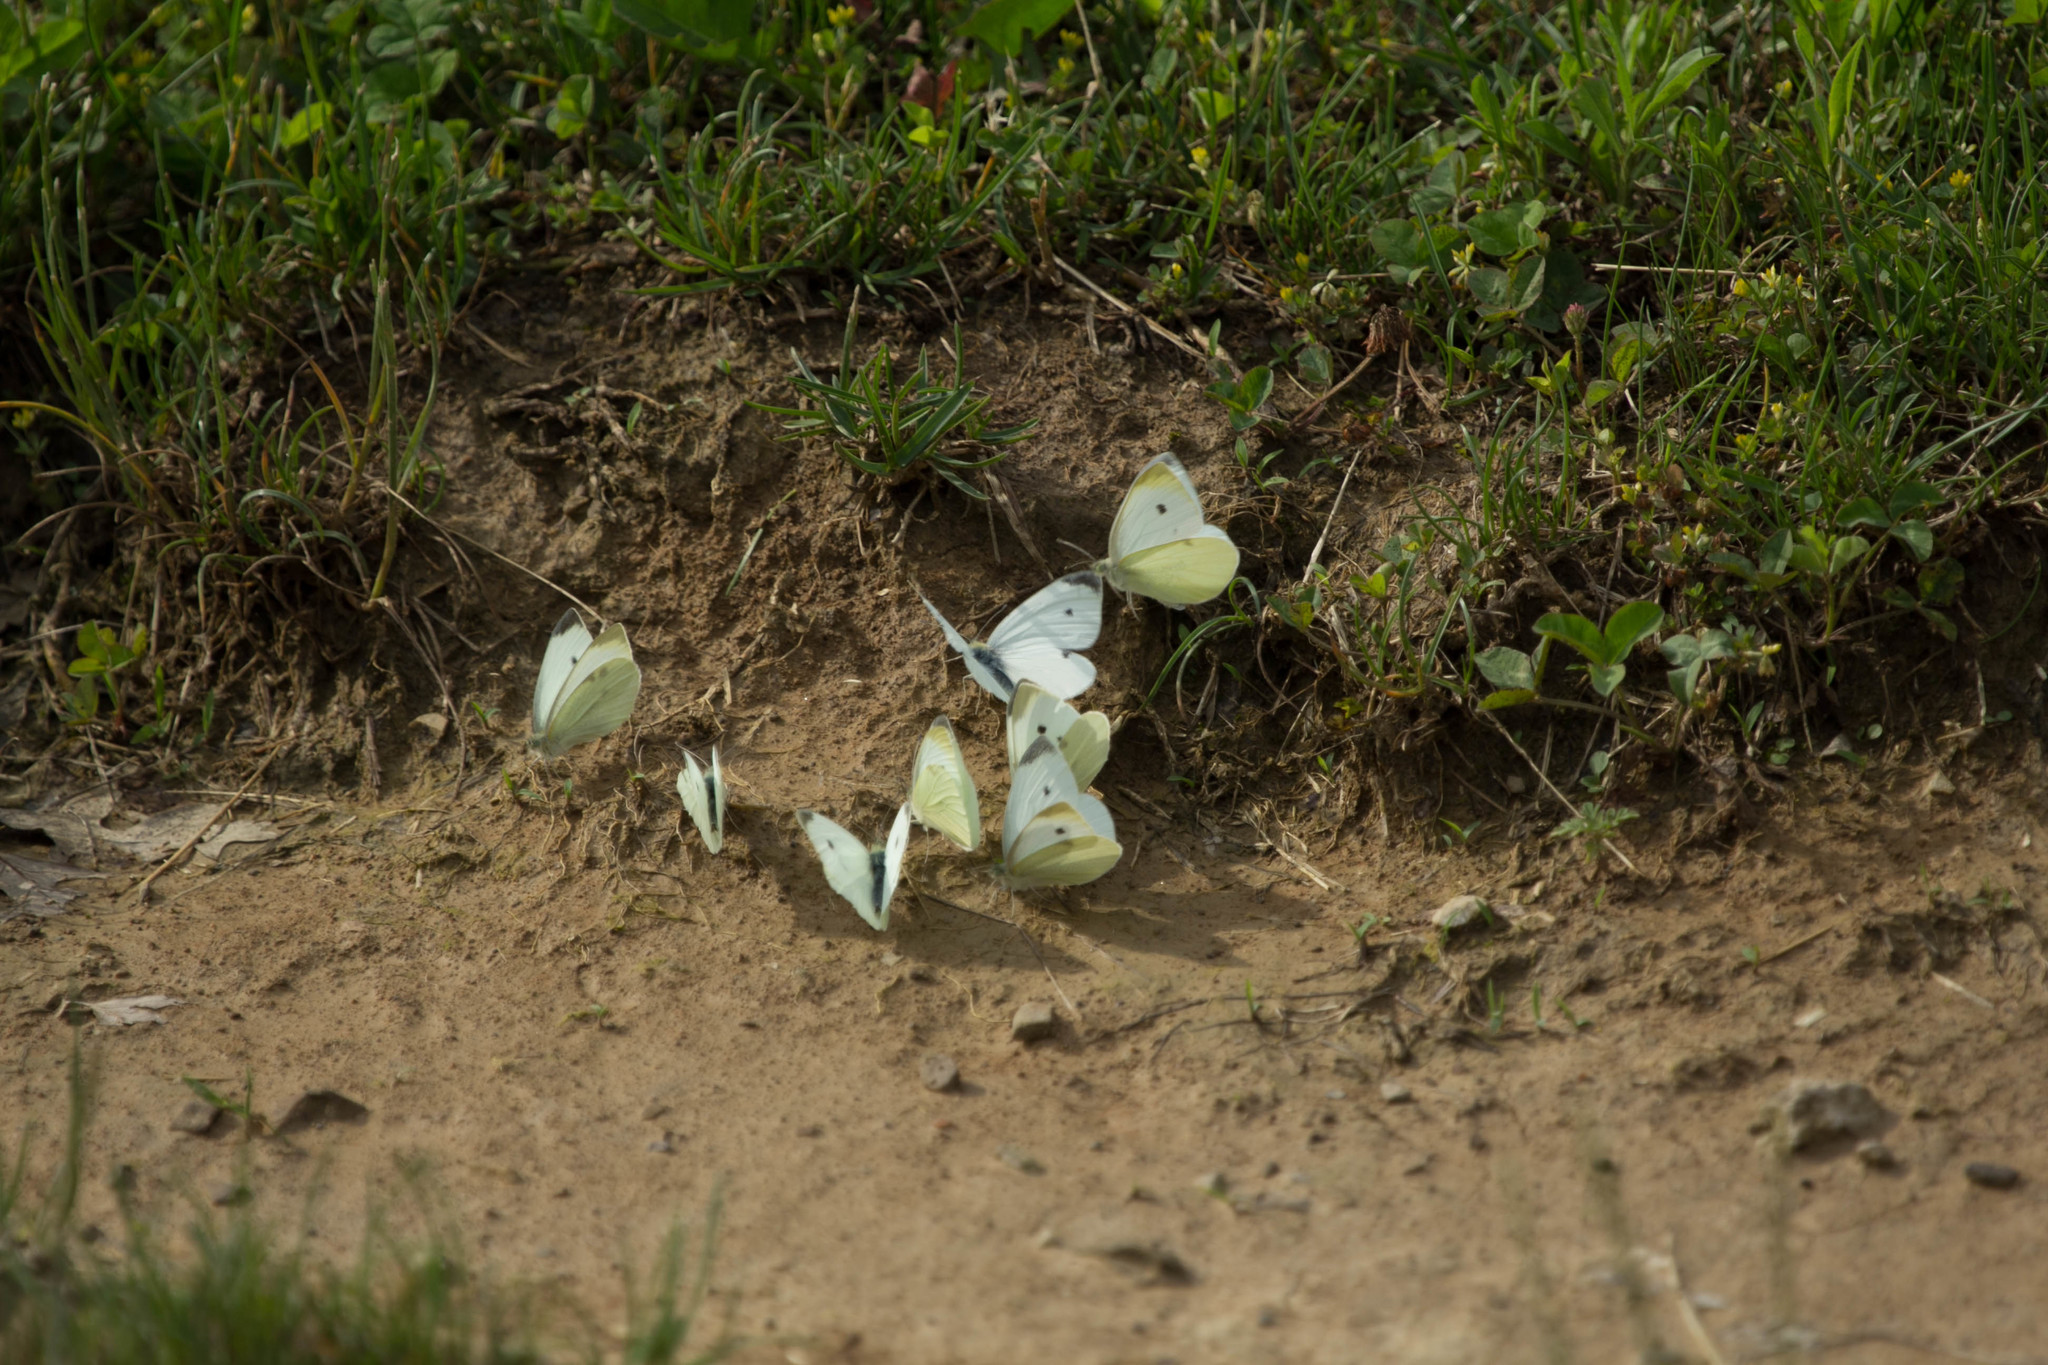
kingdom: Animalia
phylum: Arthropoda
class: Insecta
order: Lepidoptera
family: Pieridae
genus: Pieris
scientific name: Pieris rapae
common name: Small white
